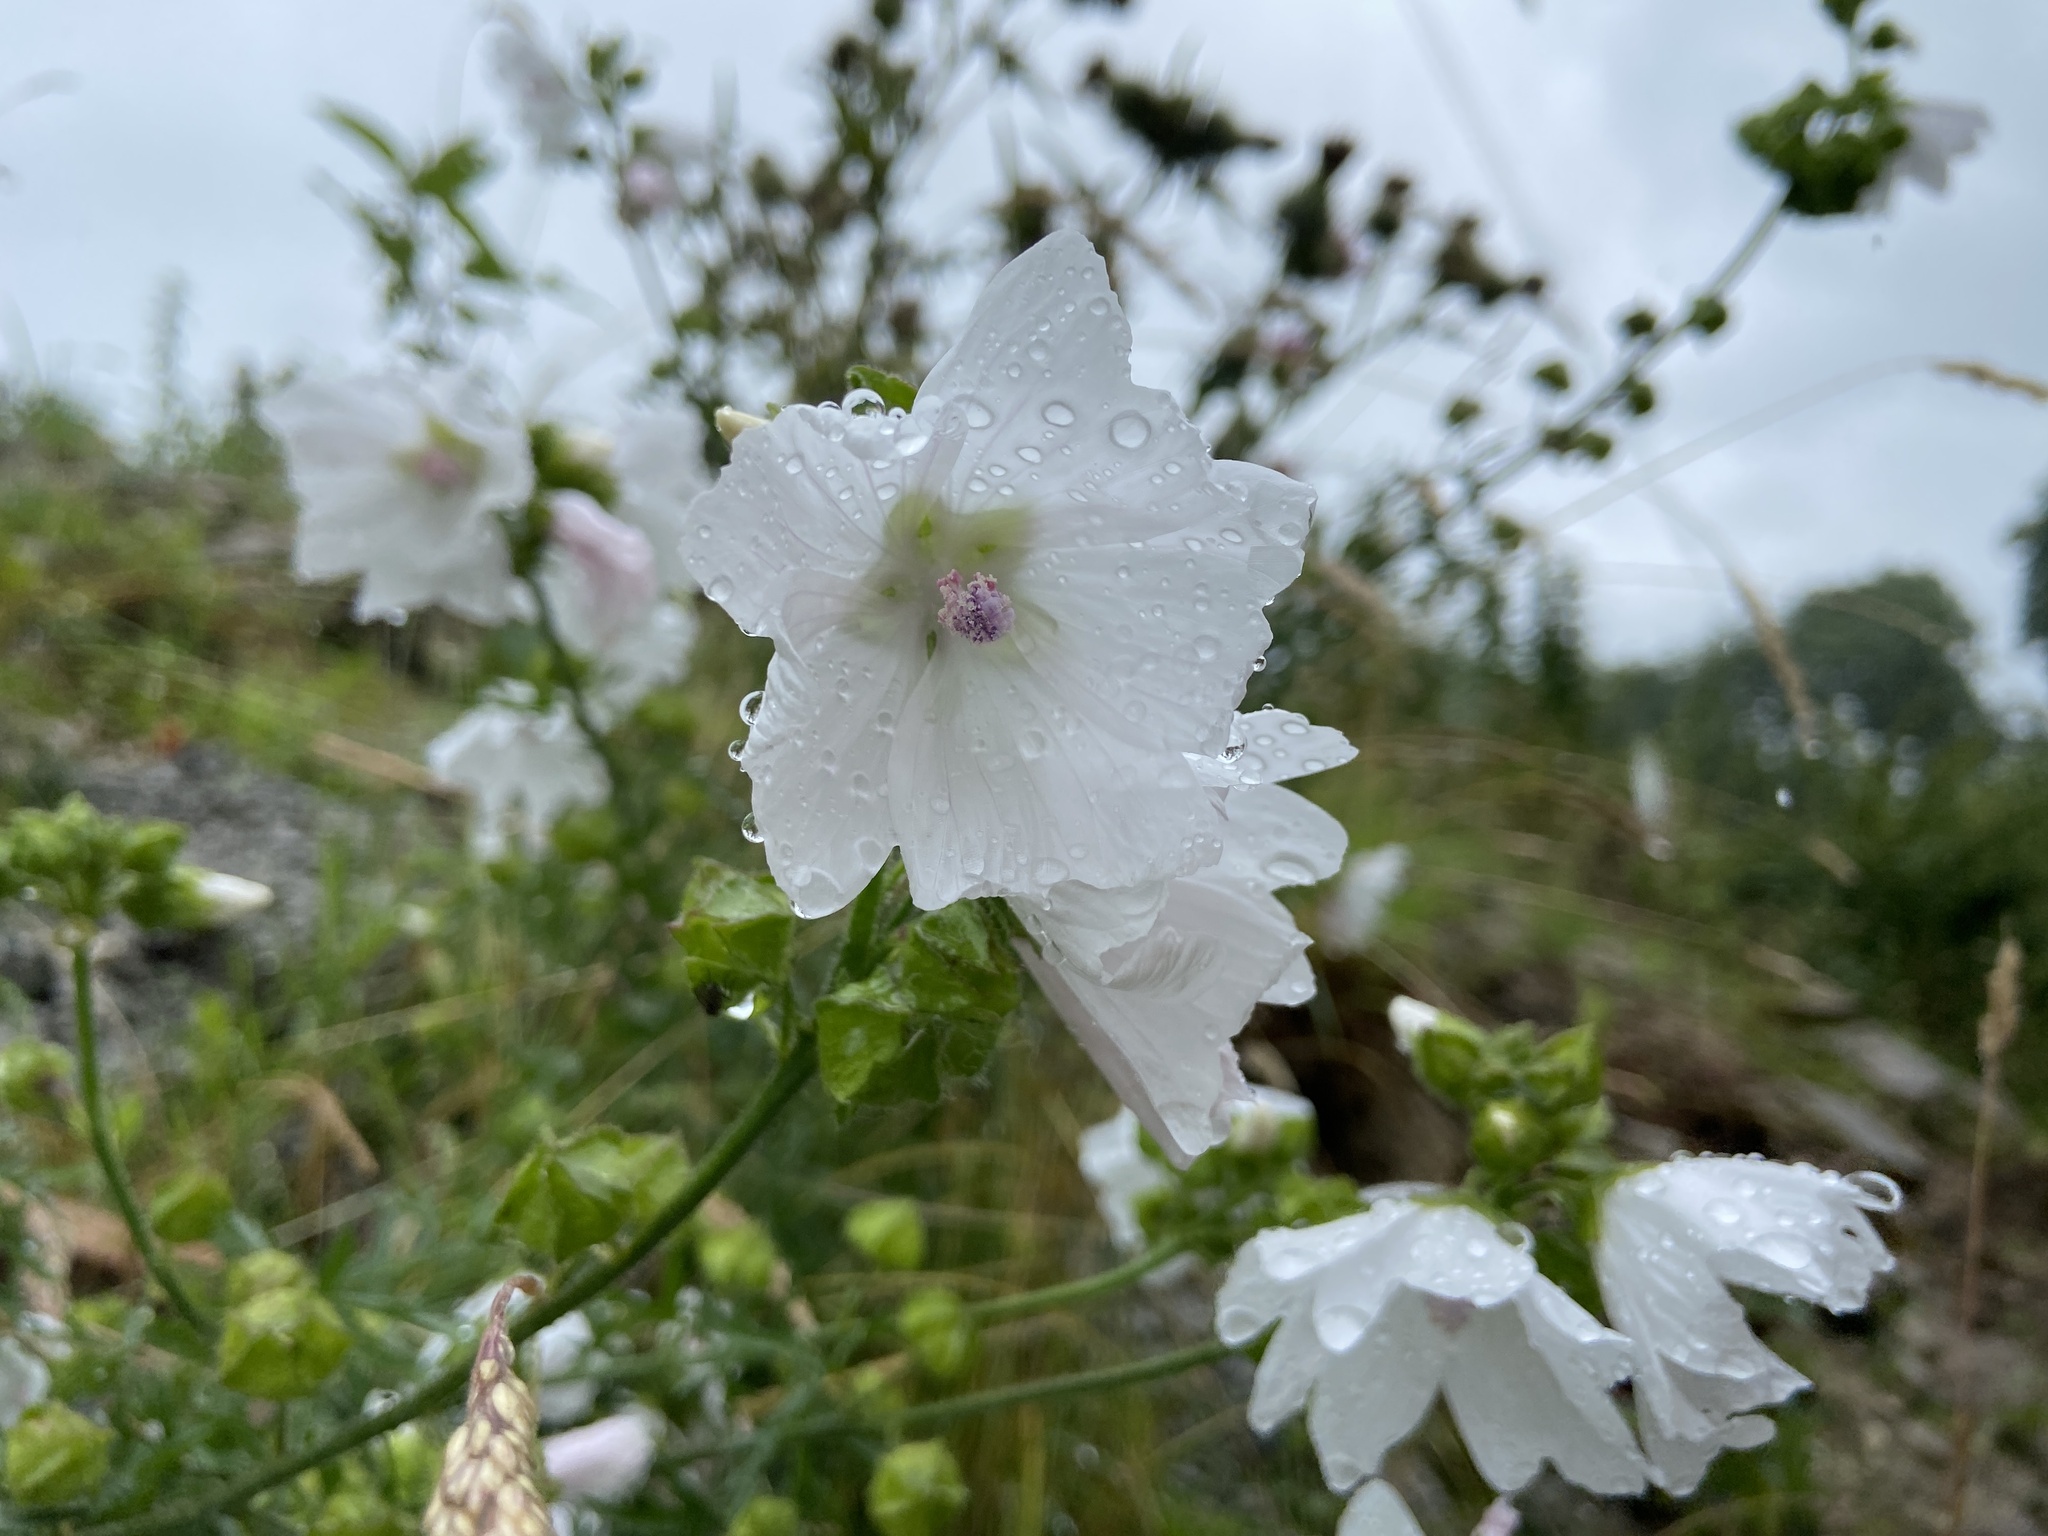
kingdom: Plantae
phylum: Tracheophyta
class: Magnoliopsida
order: Malvales
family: Malvaceae
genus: Malva
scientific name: Malva moschata
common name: Musk mallow
